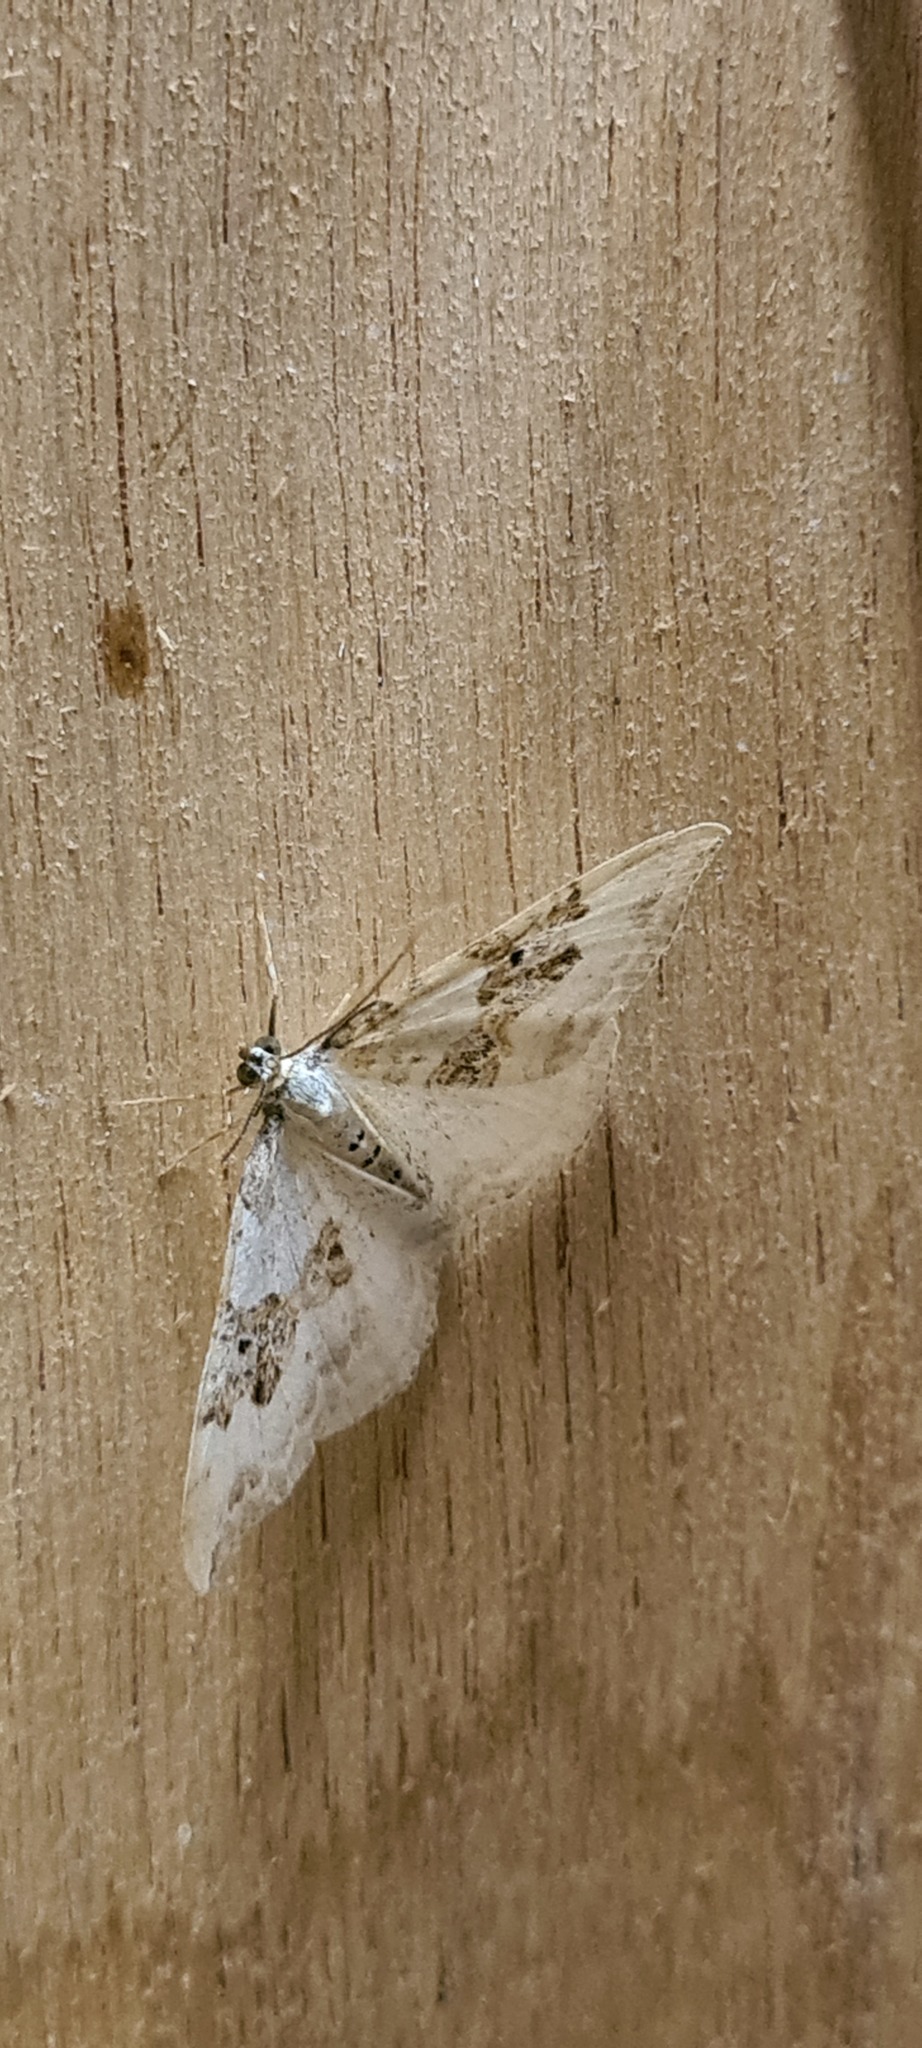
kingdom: Animalia
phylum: Arthropoda
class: Insecta
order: Lepidoptera
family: Geometridae
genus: Xanthorhoe
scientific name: Xanthorhoe montanata
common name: Silver-ground carpet
